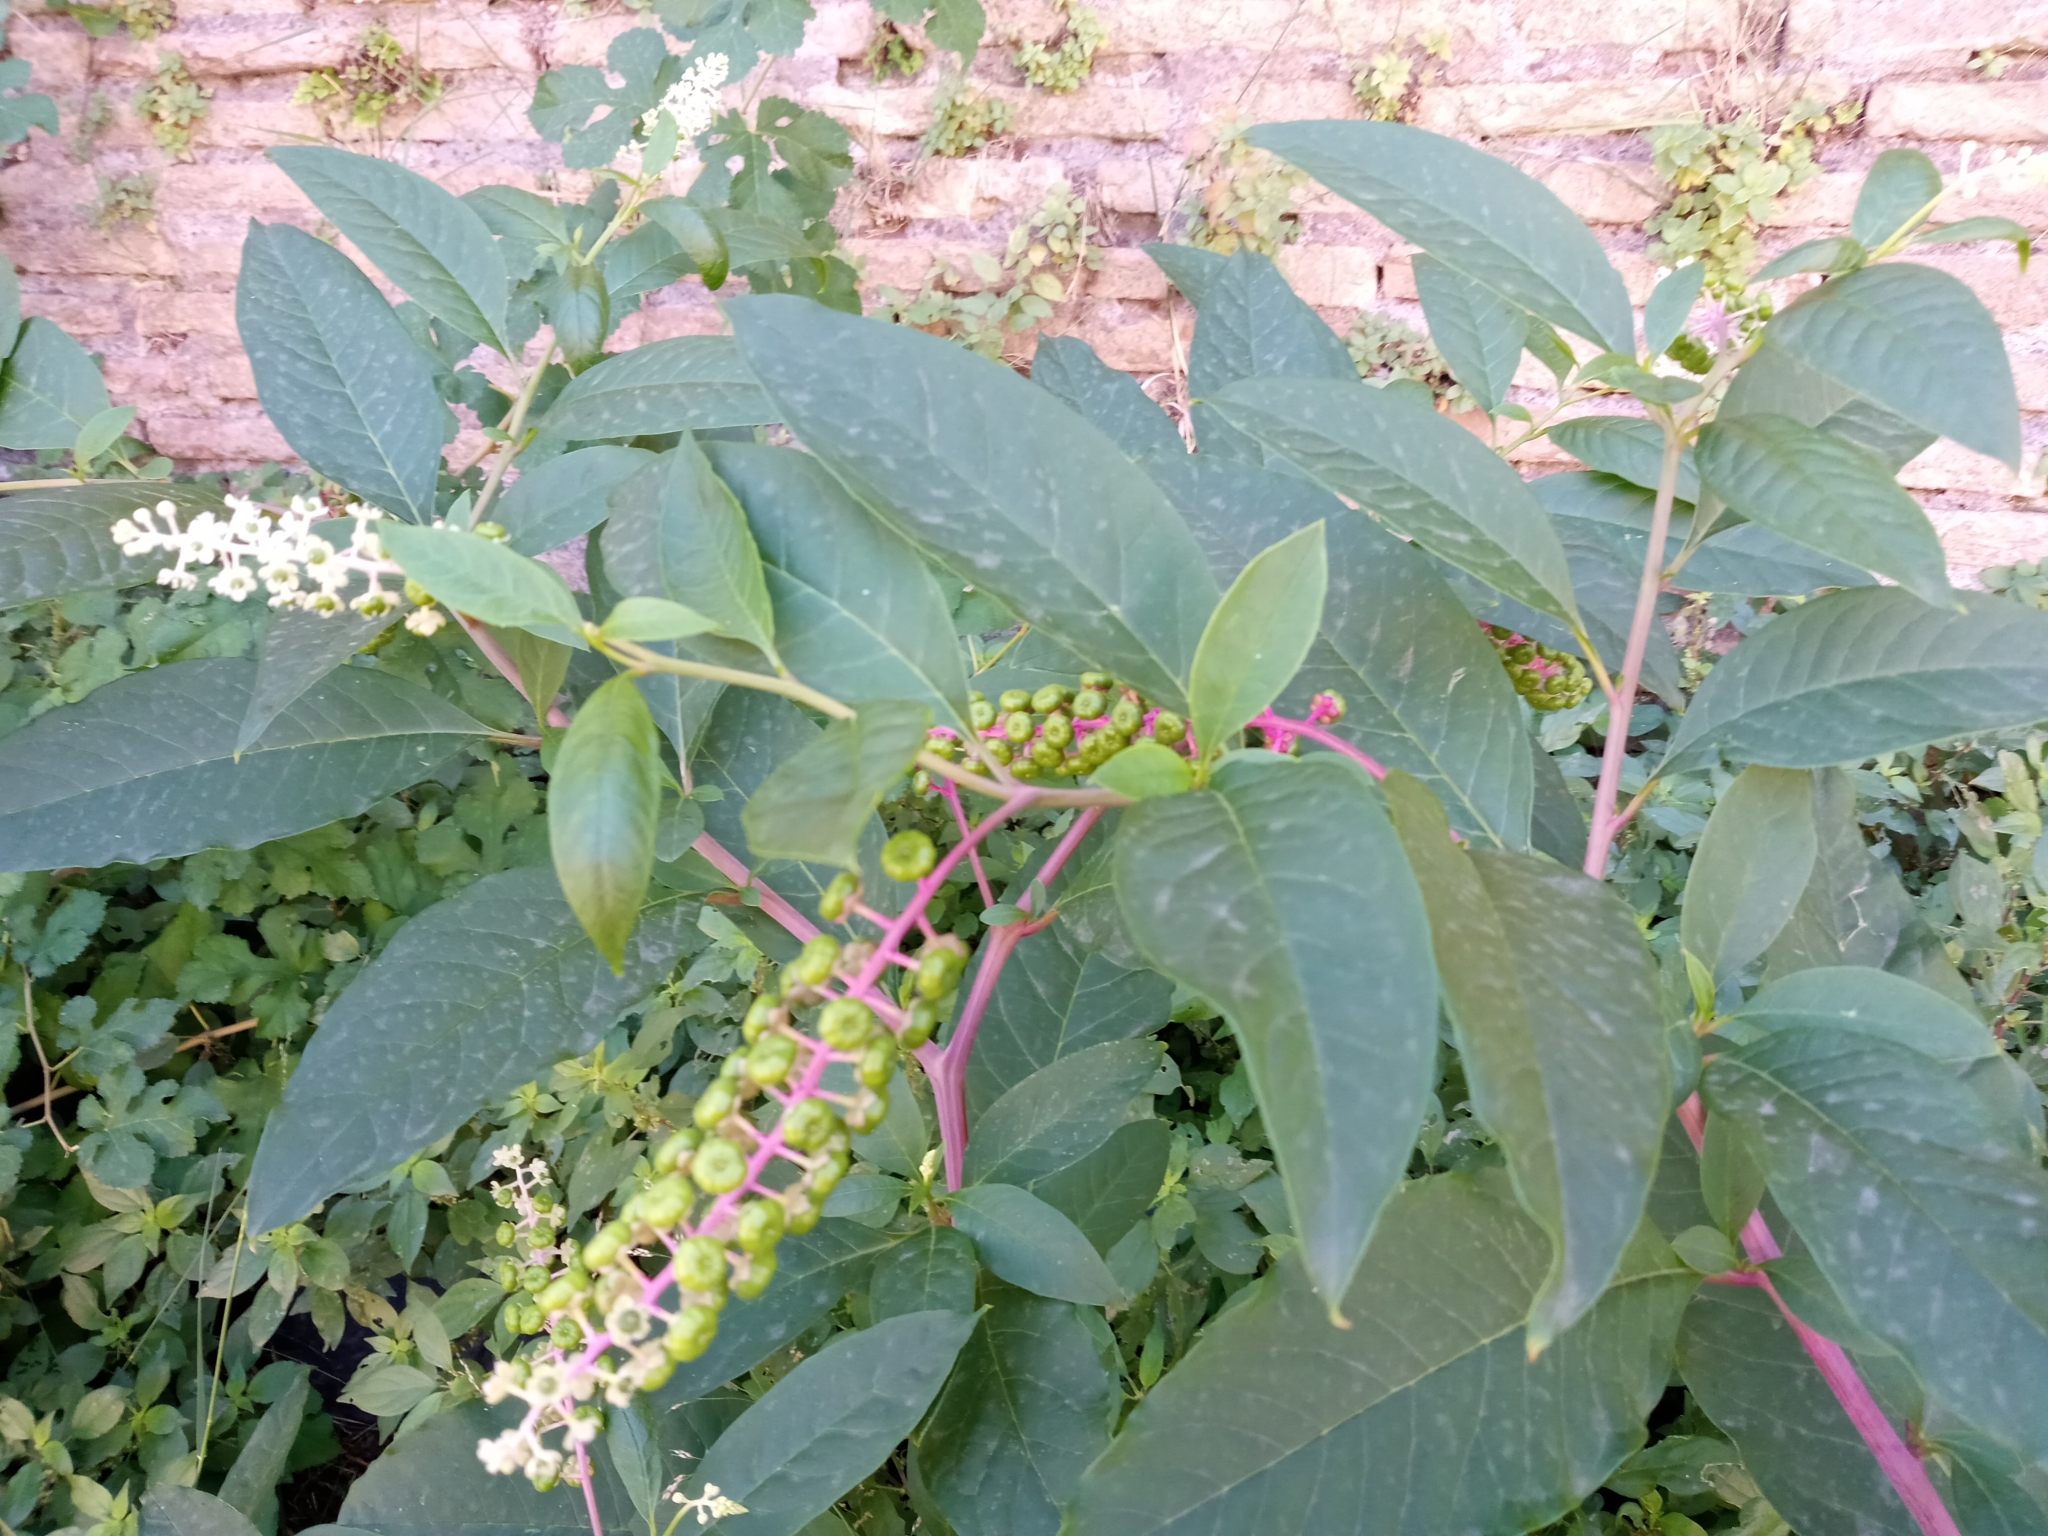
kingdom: Plantae
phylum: Tracheophyta
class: Magnoliopsida
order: Caryophyllales
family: Phytolaccaceae
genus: Phytolacca
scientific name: Phytolacca americana
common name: American pokeweed
